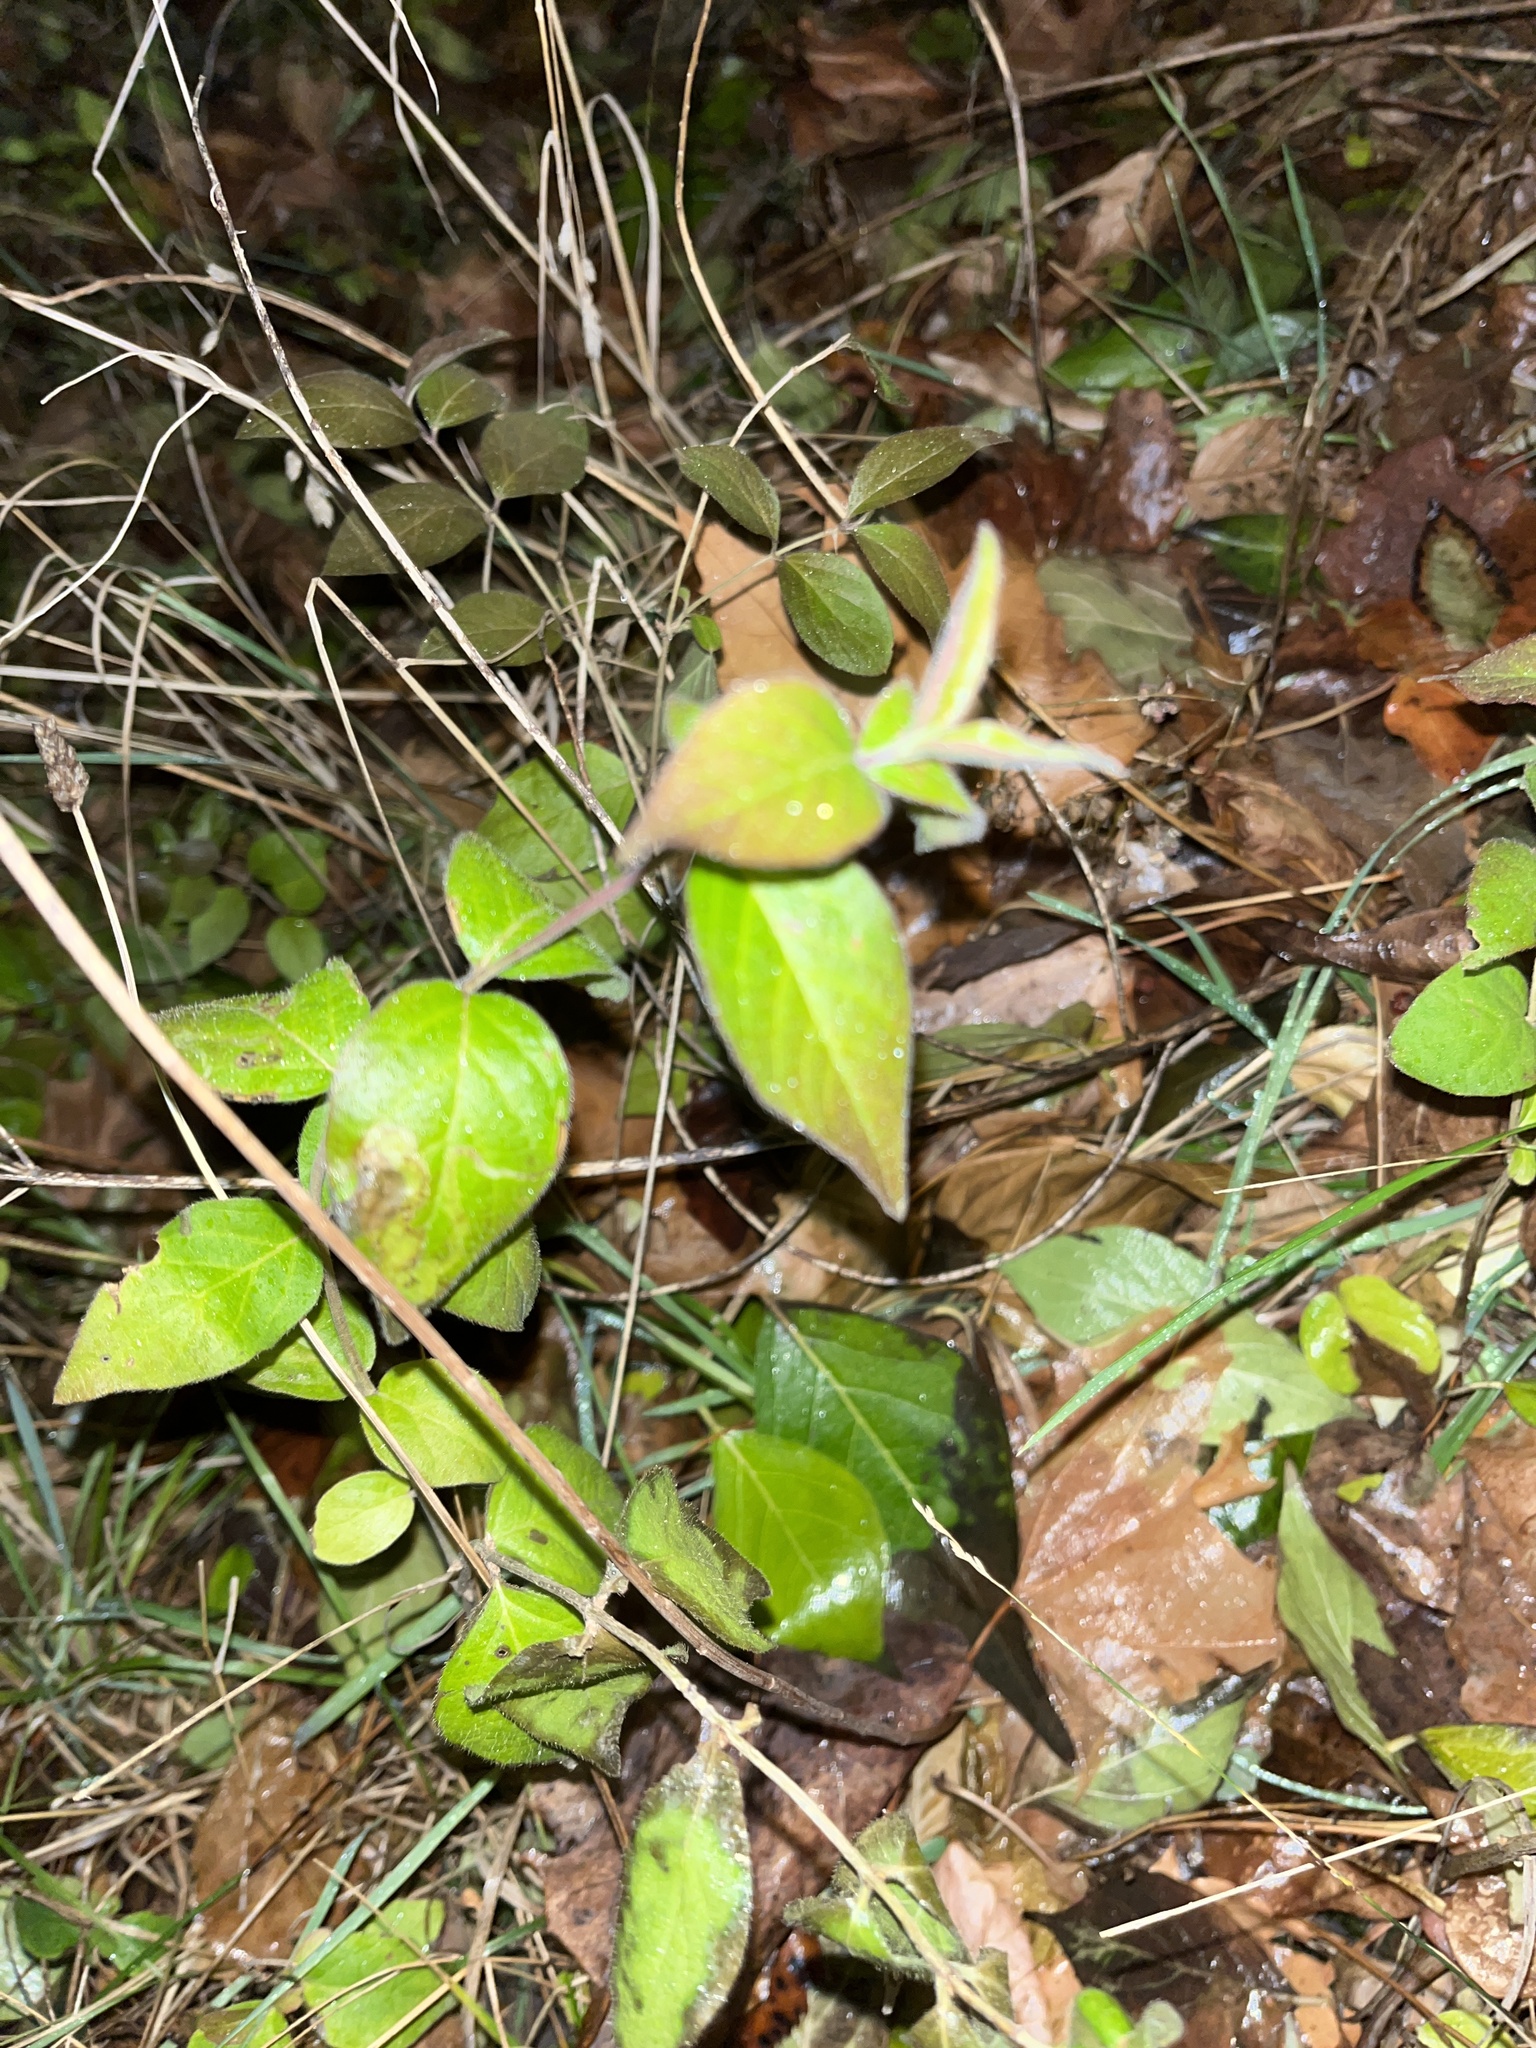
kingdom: Plantae
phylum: Tracheophyta
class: Magnoliopsida
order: Dipsacales
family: Caprifoliaceae
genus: Lonicera
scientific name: Lonicera maackii
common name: Amur honeysuckle
